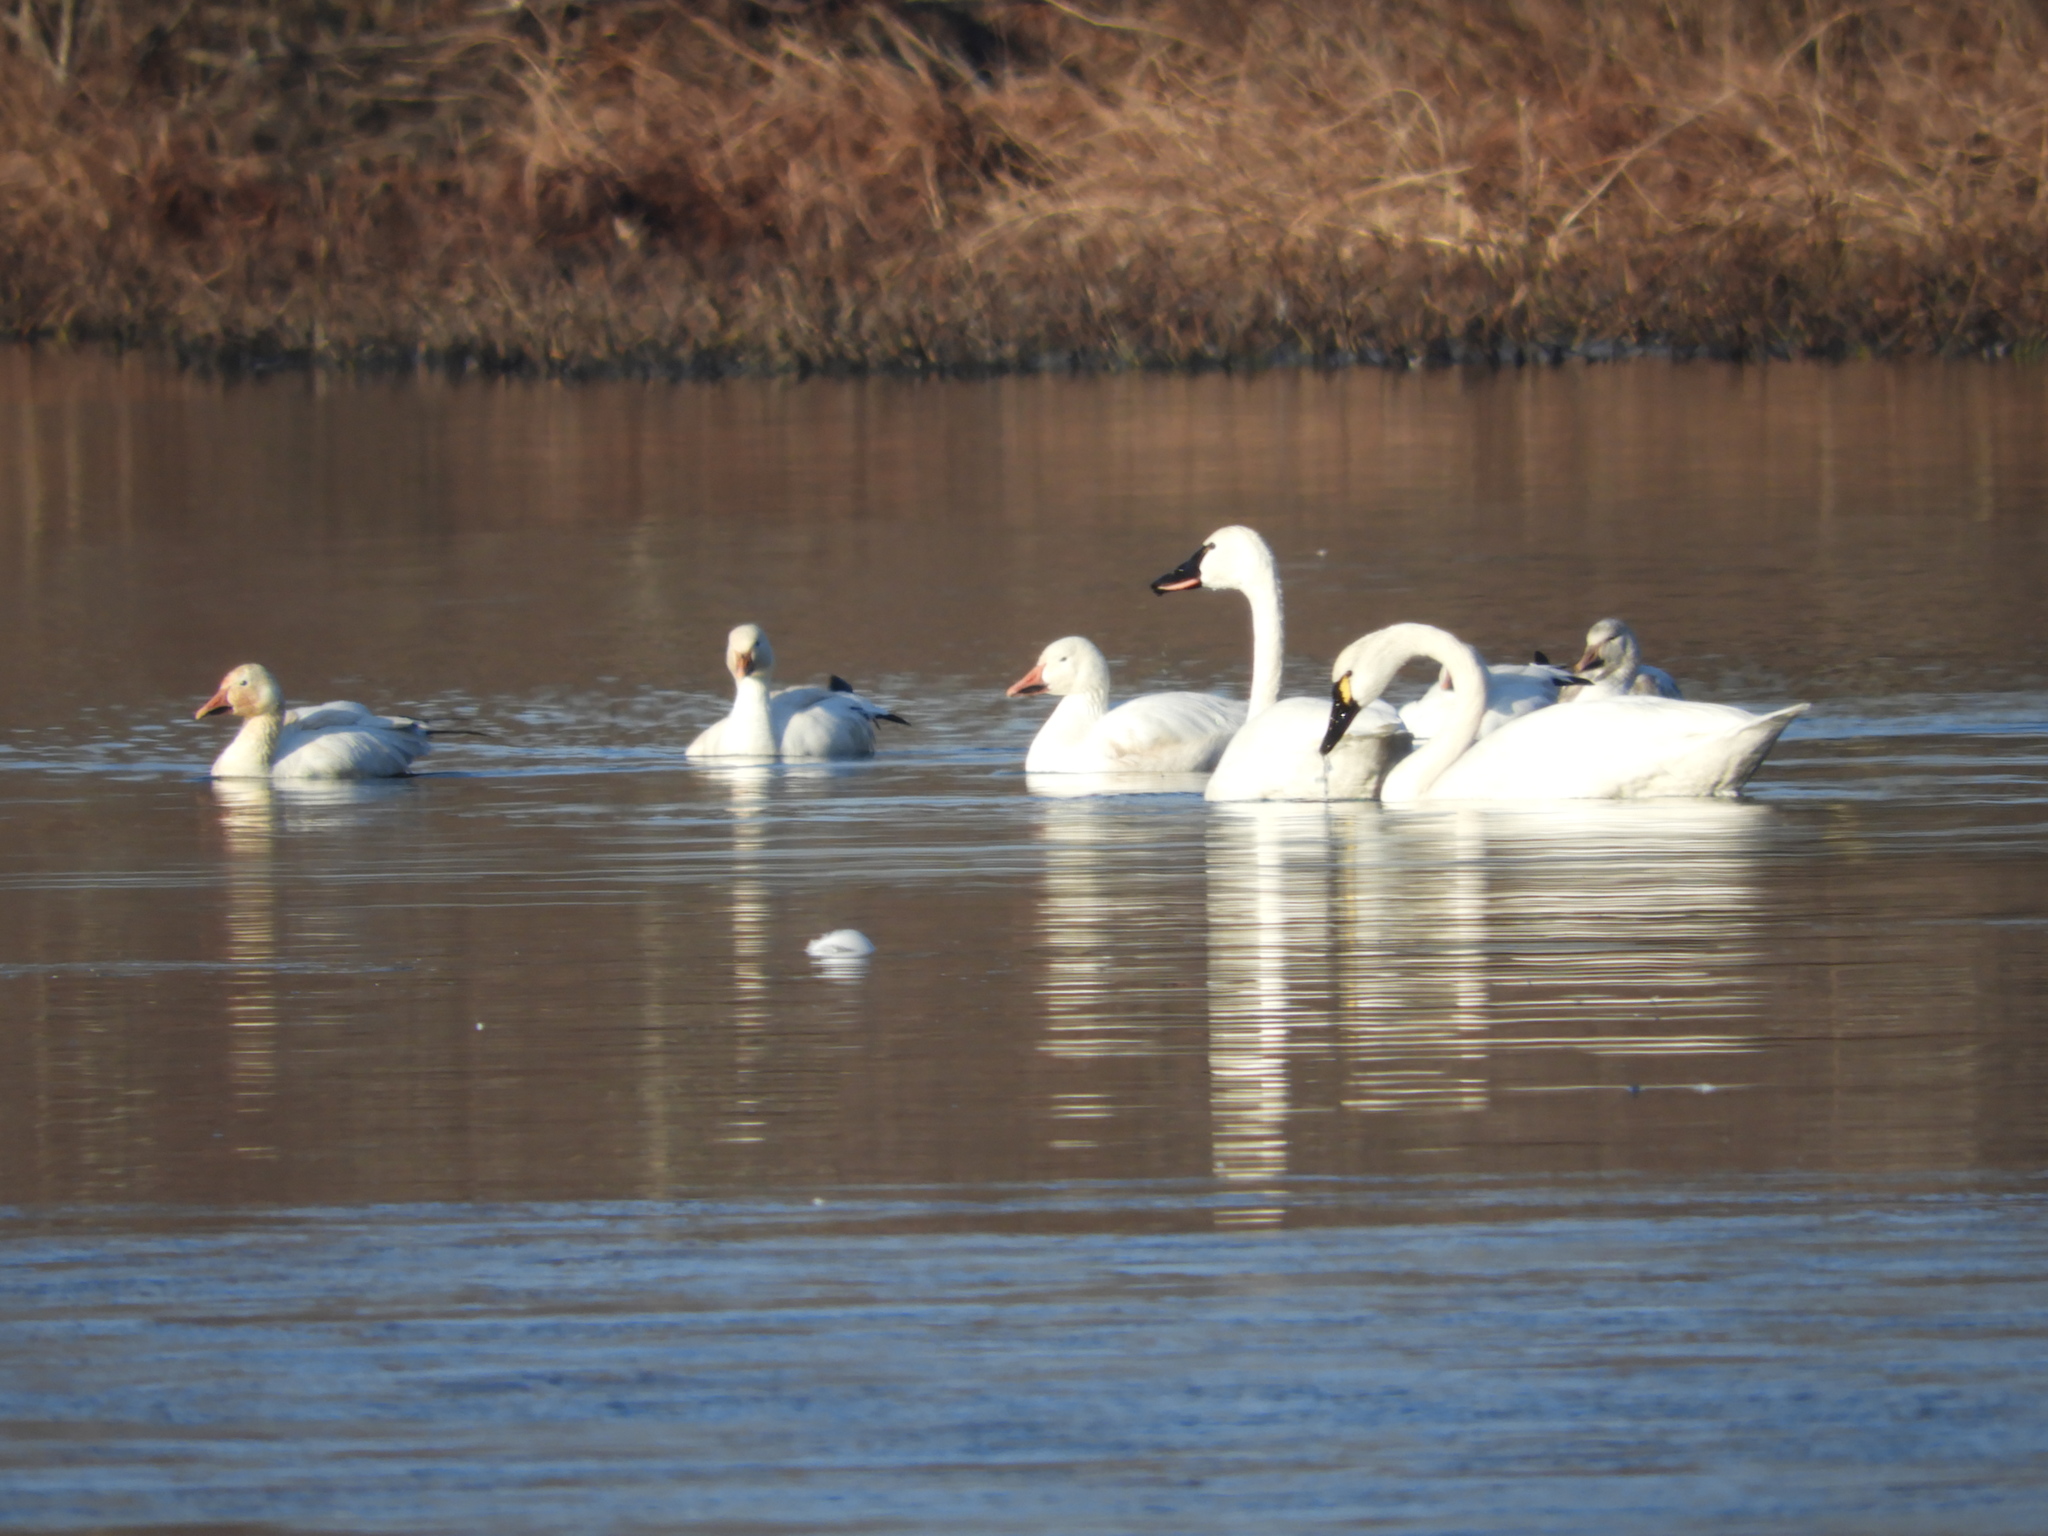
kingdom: Animalia
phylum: Chordata
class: Aves
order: Anseriformes
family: Anatidae
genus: Cygnus
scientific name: Cygnus columbianus
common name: Tundra swan
